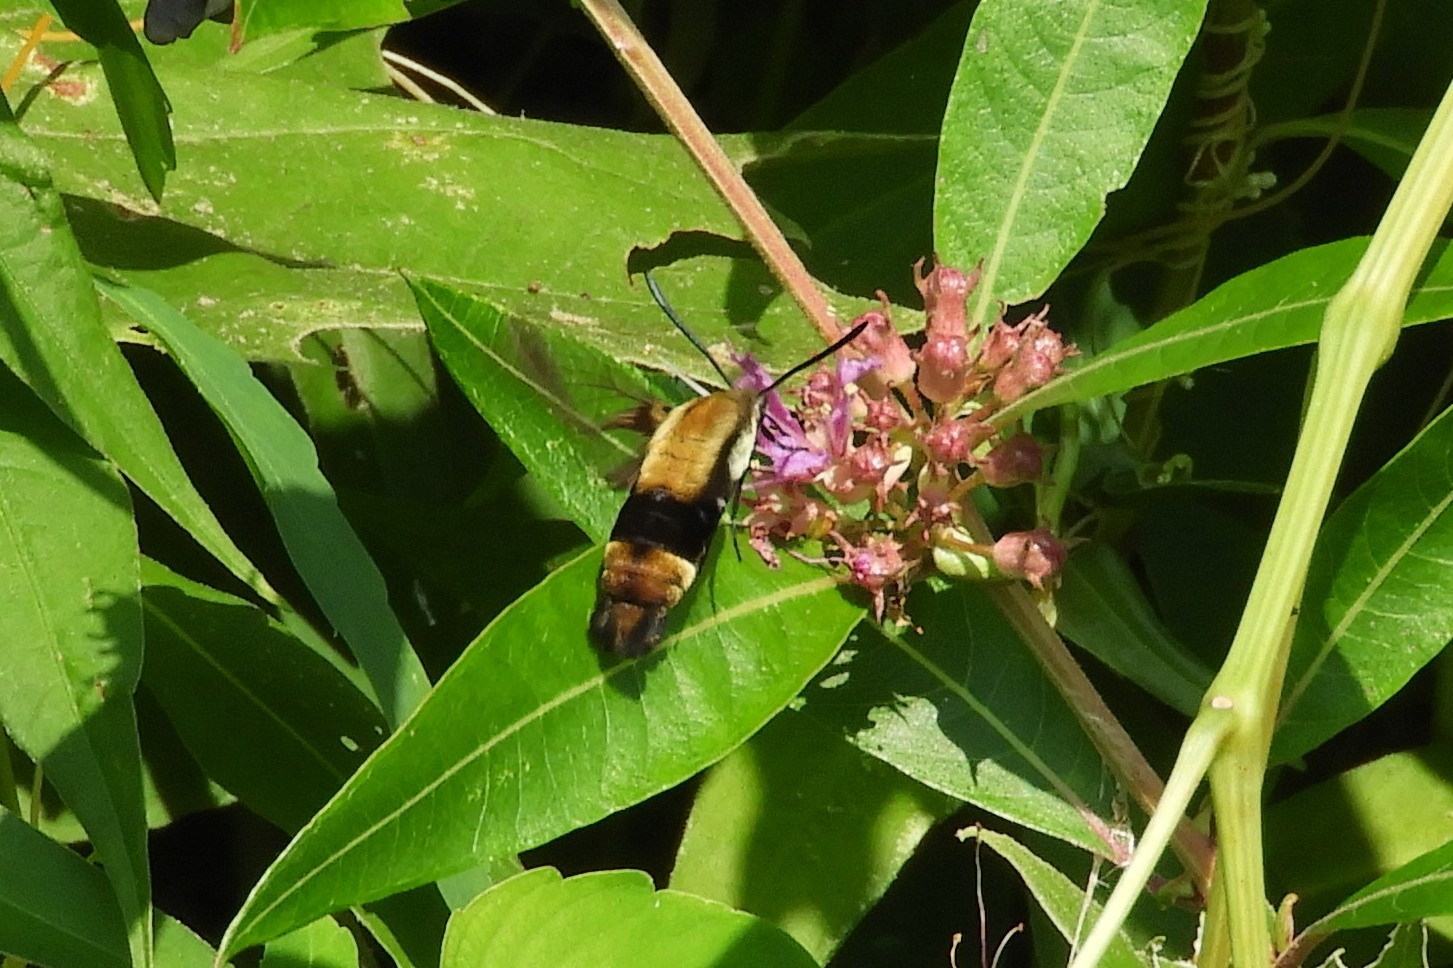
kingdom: Animalia
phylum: Arthropoda
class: Insecta
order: Lepidoptera
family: Sphingidae
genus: Hemaris
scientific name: Hemaris diffinis
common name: Bumblebee moth
